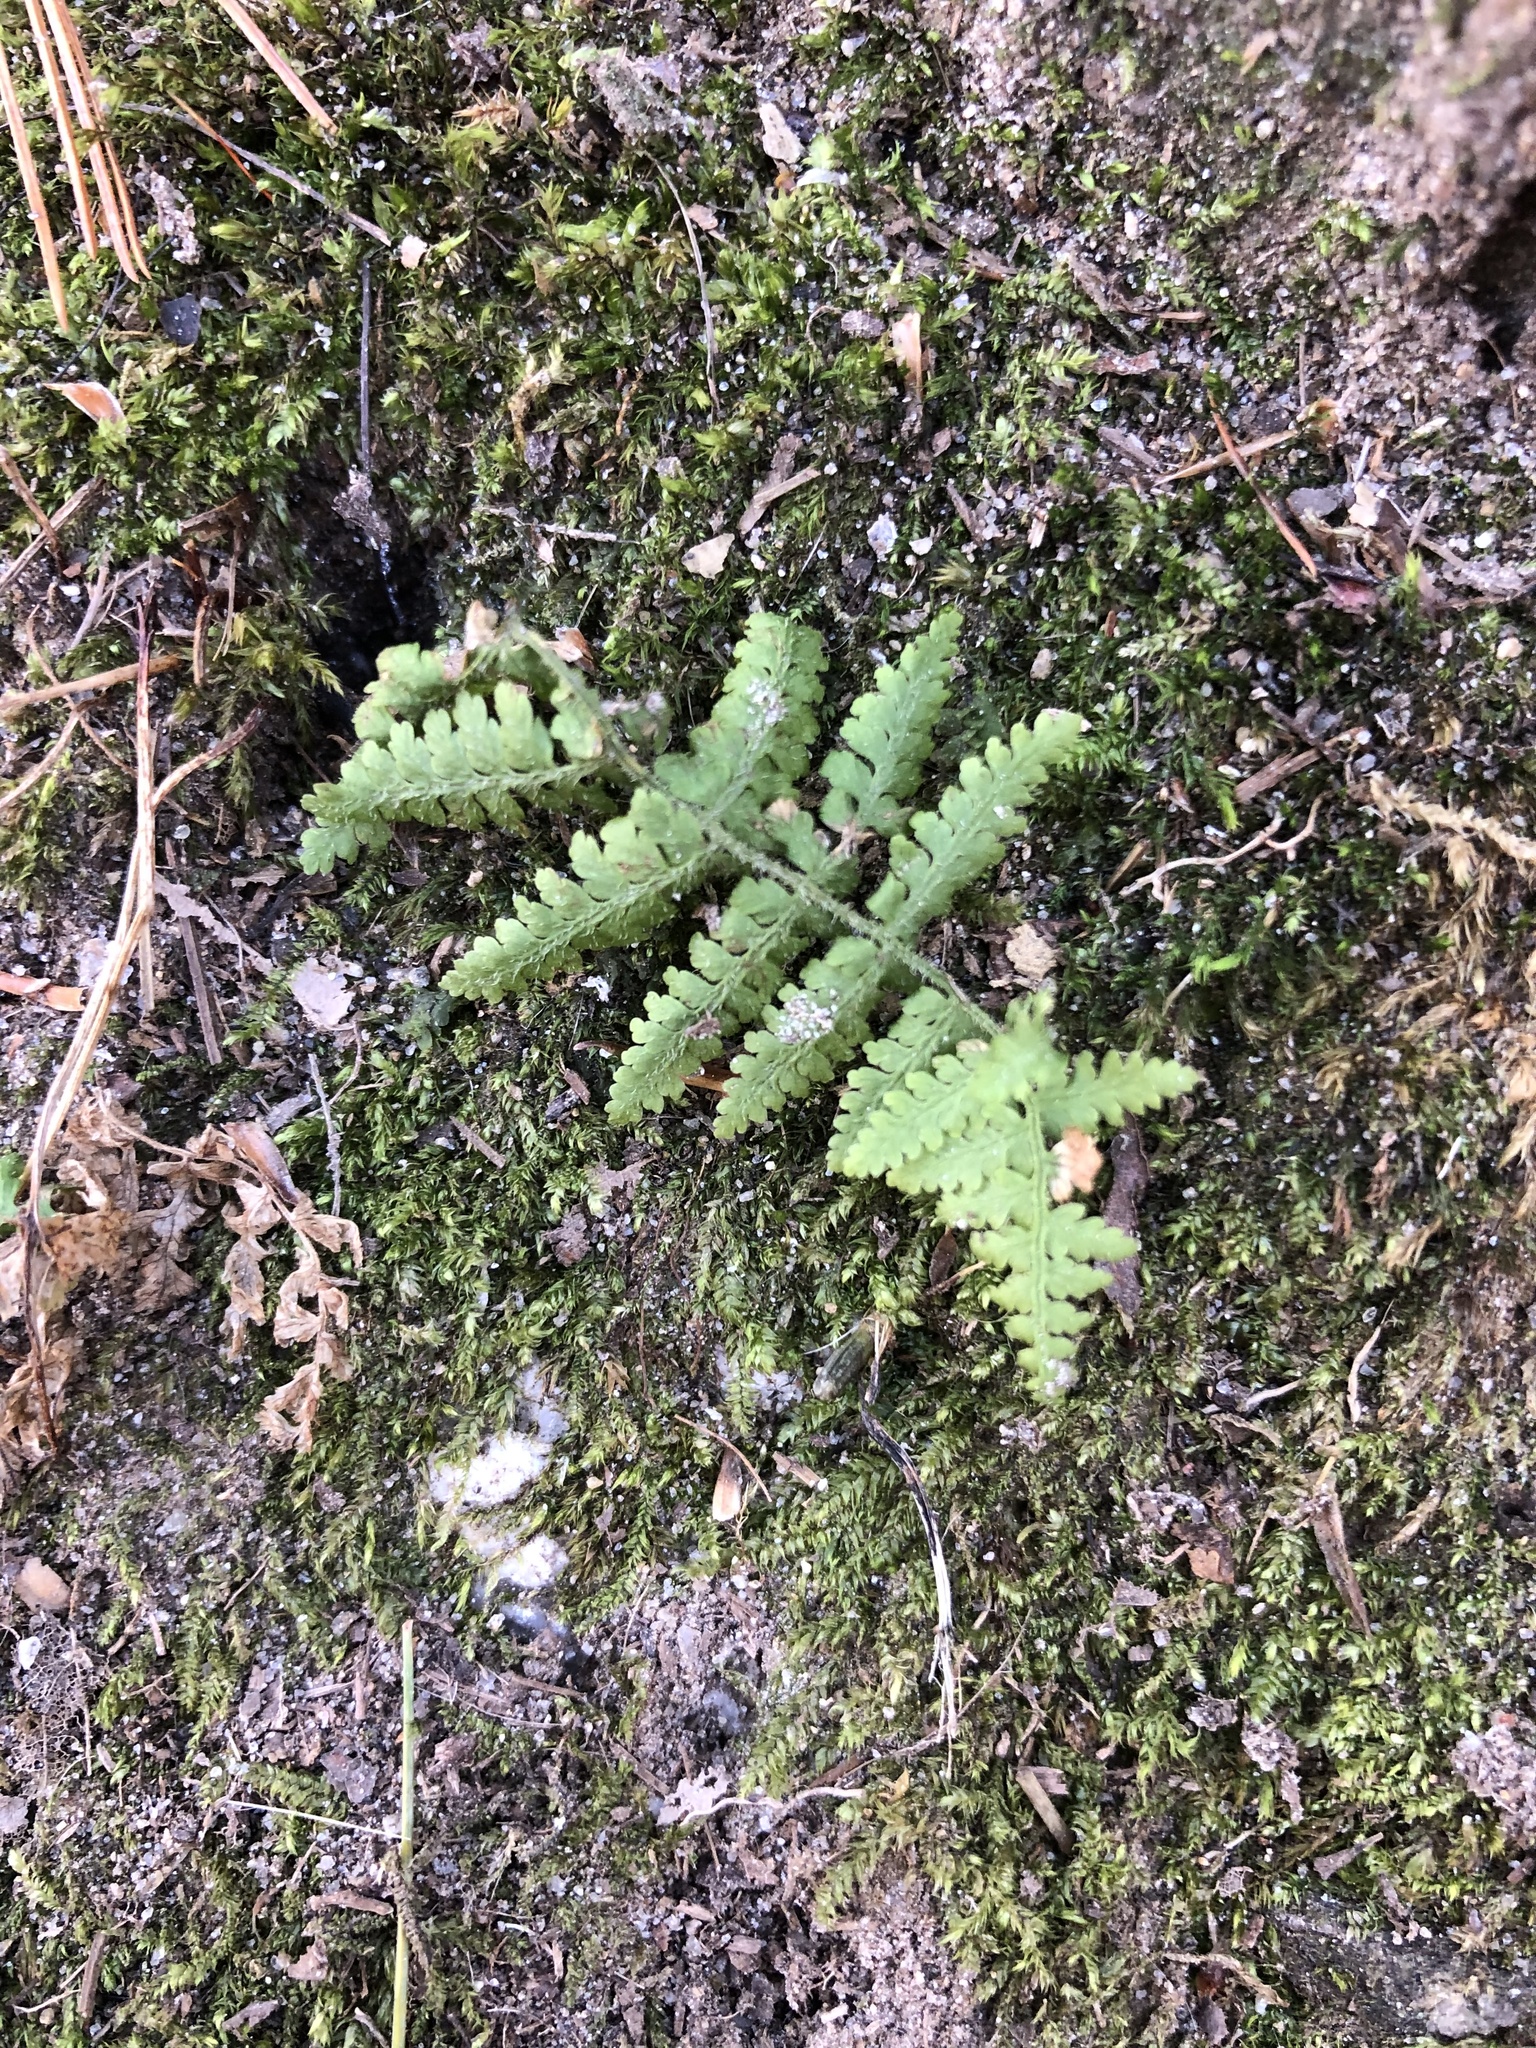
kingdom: Plantae
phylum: Tracheophyta
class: Polypodiopsida
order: Polypodiales
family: Dennstaedtiaceae
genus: Sitobolium
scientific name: Sitobolium punctilobum
